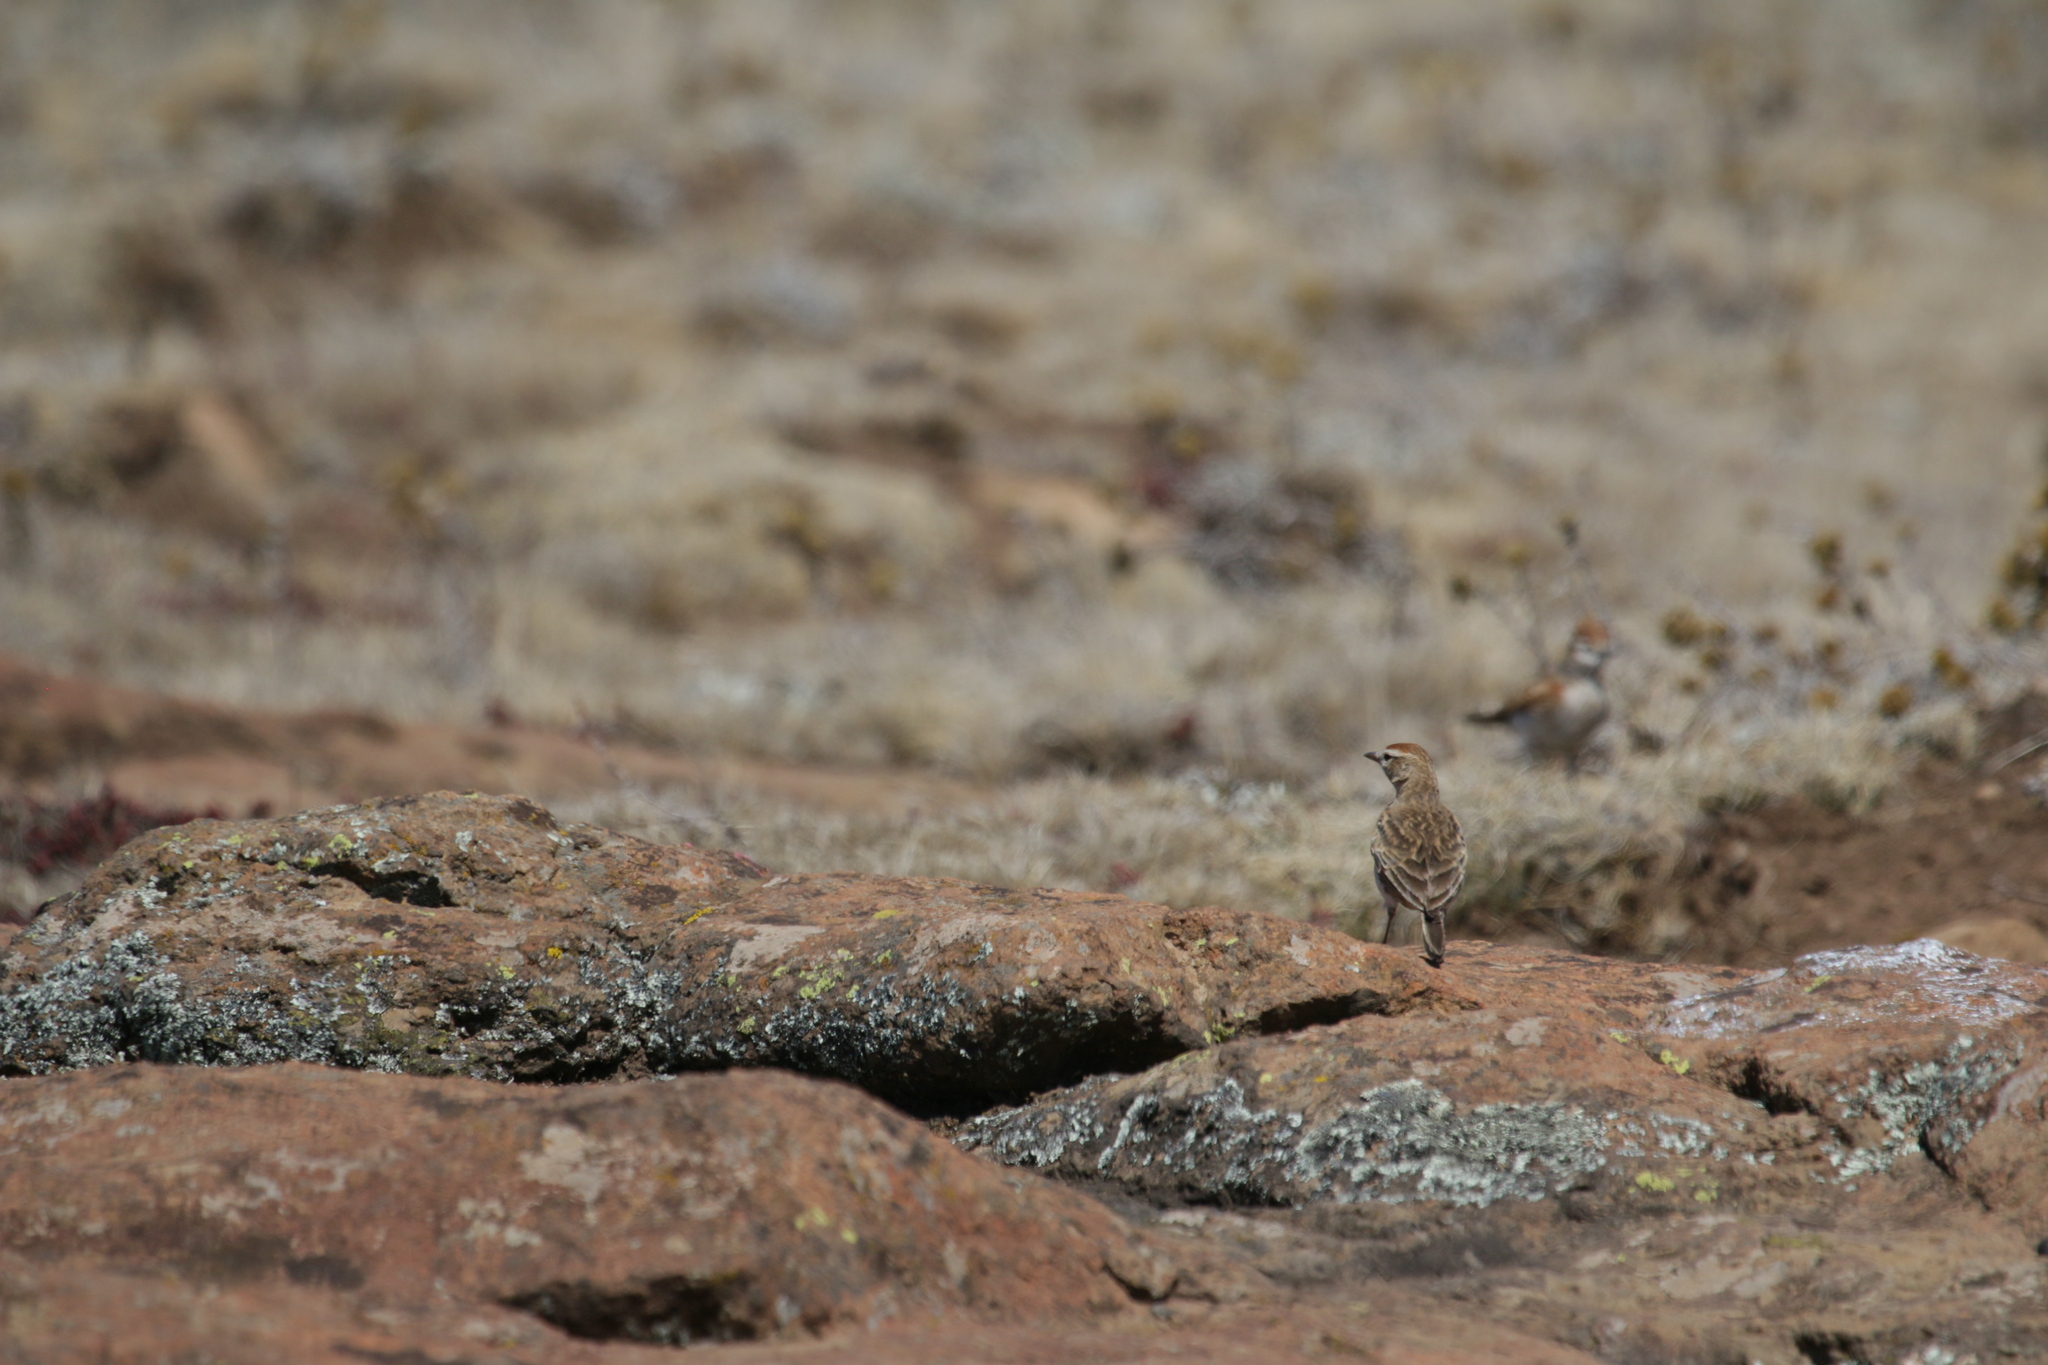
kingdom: Animalia
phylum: Chordata
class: Aves
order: Passeriformes
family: Alaudidae
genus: Calandrella
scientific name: Calandrella cinerea
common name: Red-capped lark
